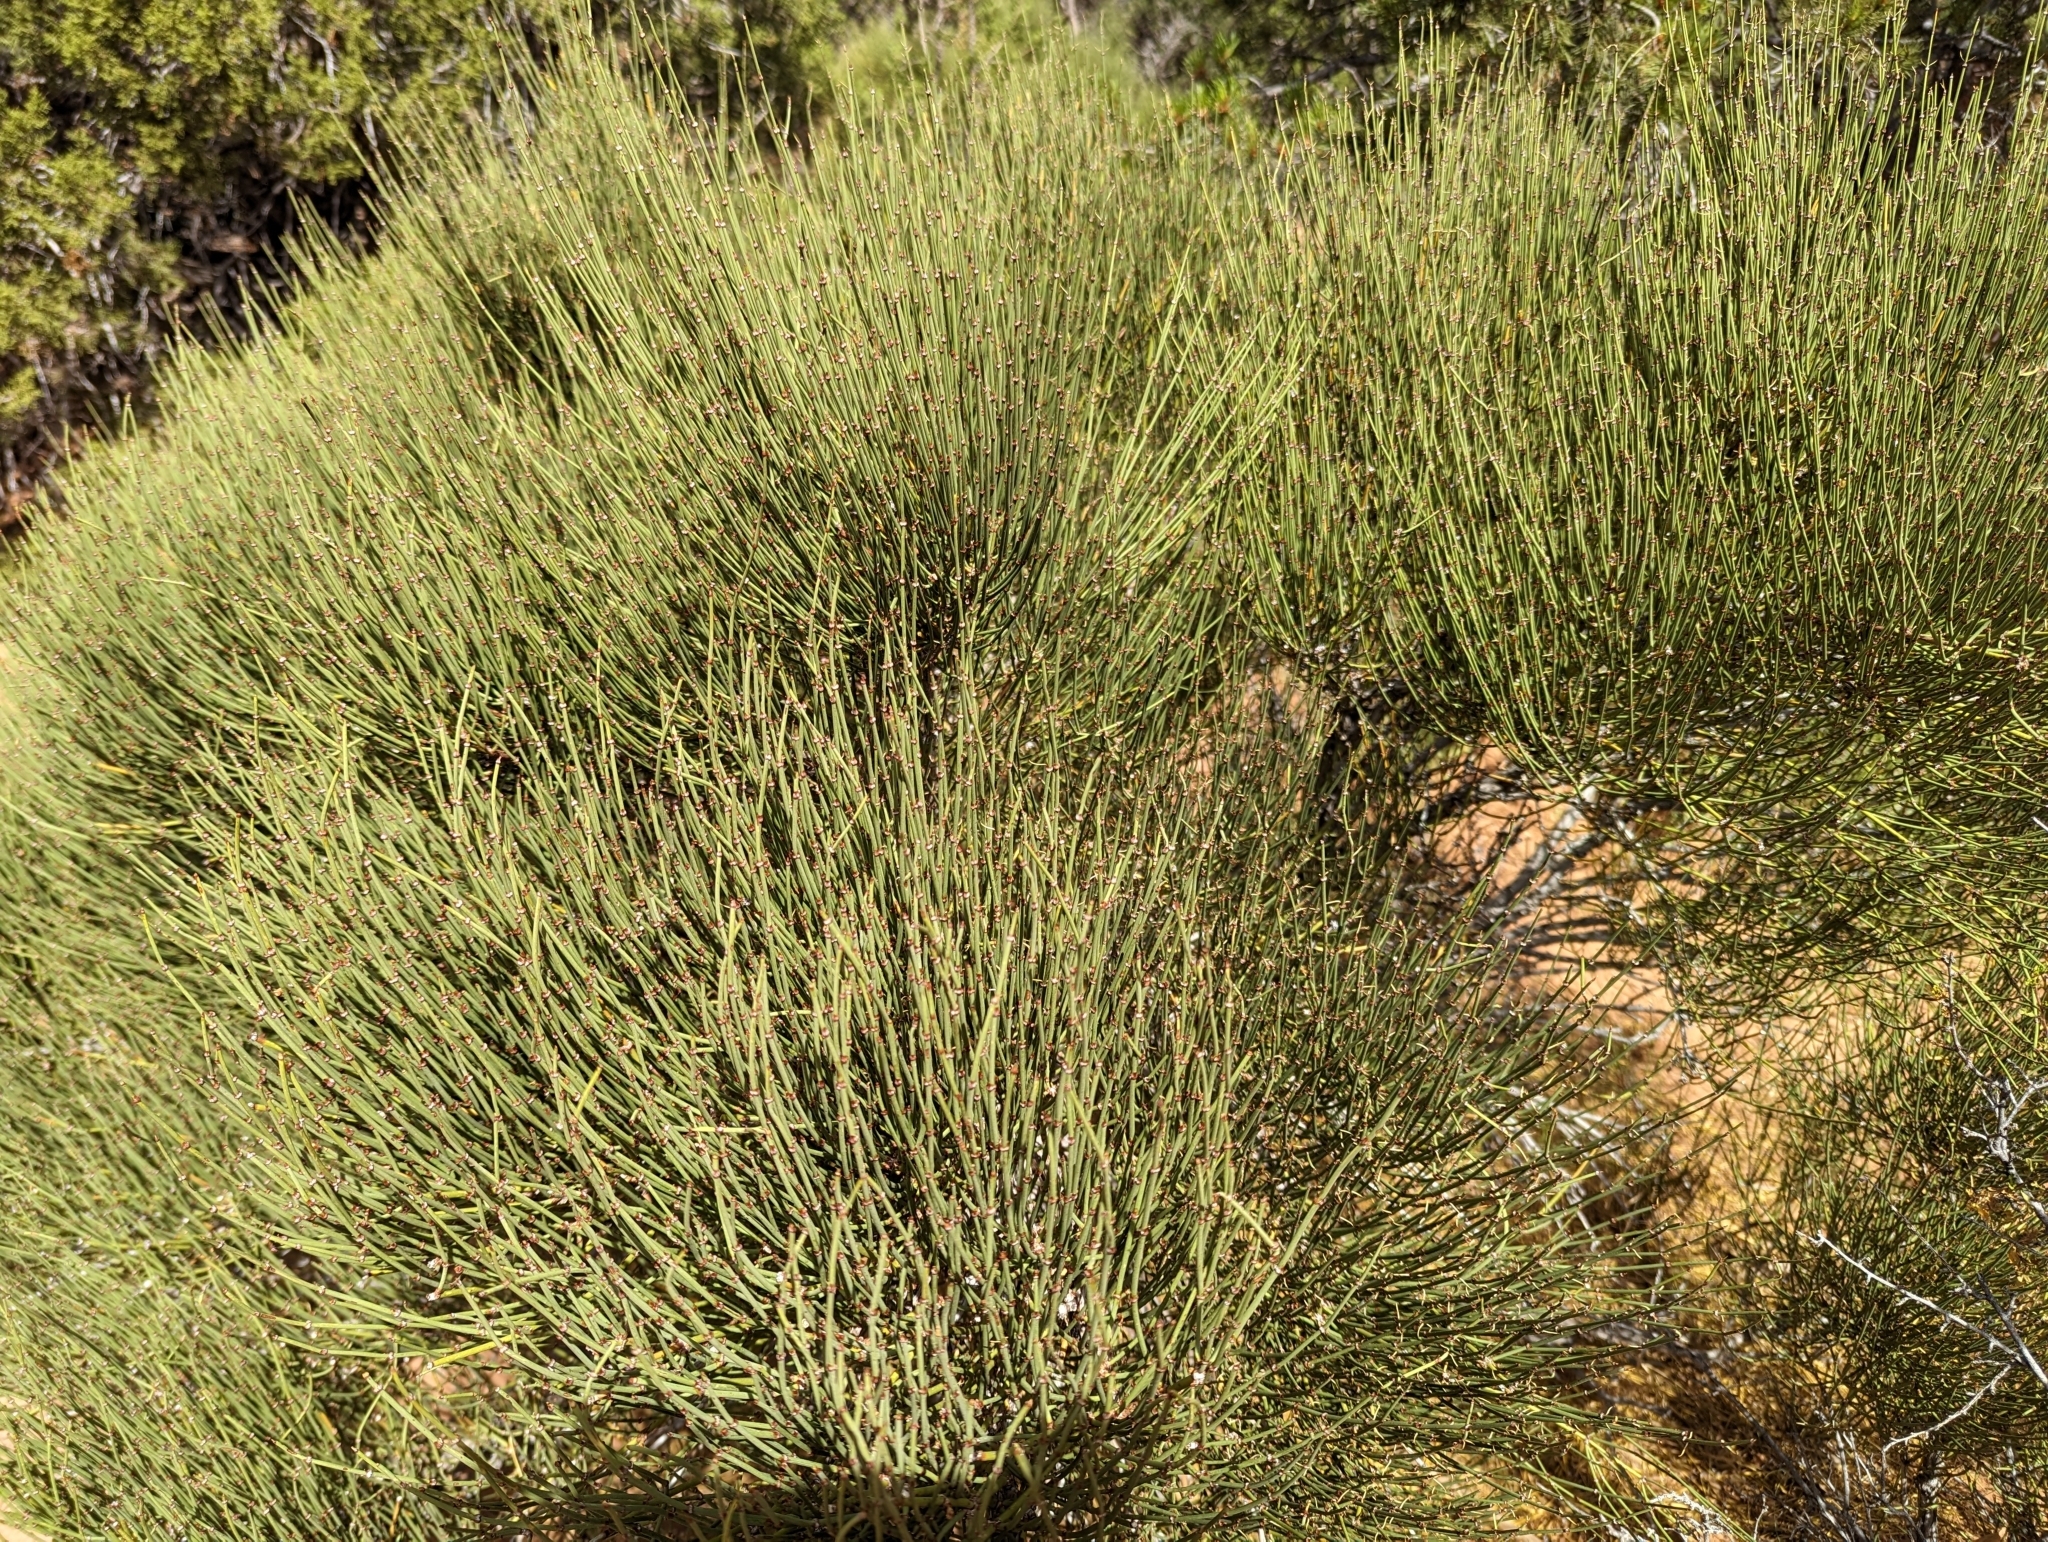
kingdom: Plantae
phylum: Tracheophyta
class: Gnetopsida
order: Ephedrales
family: Ephedraceae
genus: Ephedra
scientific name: Ephedra viridis
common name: Green ephedra
